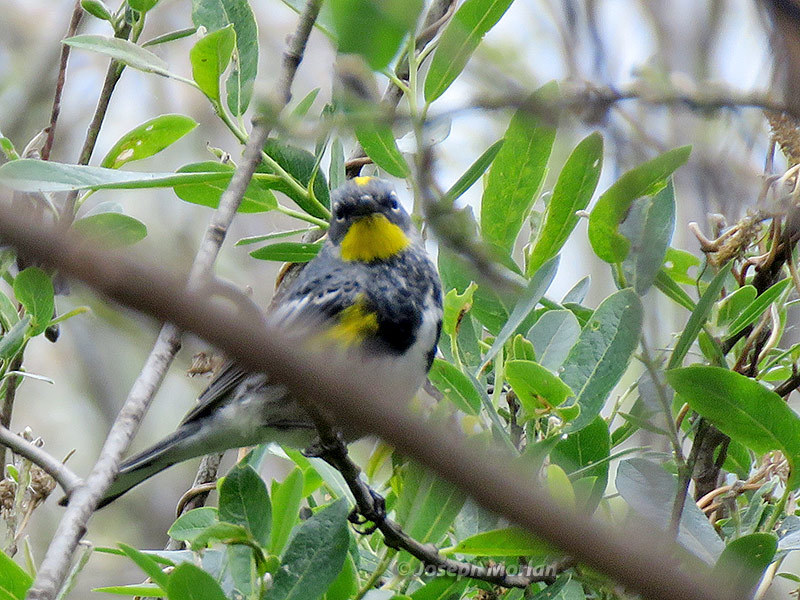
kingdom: Animalia
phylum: Chordata
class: Aves
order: Passeriformes
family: Parulidae
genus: Setophaga
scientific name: Setophaga coronata
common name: Myrtle warbler
